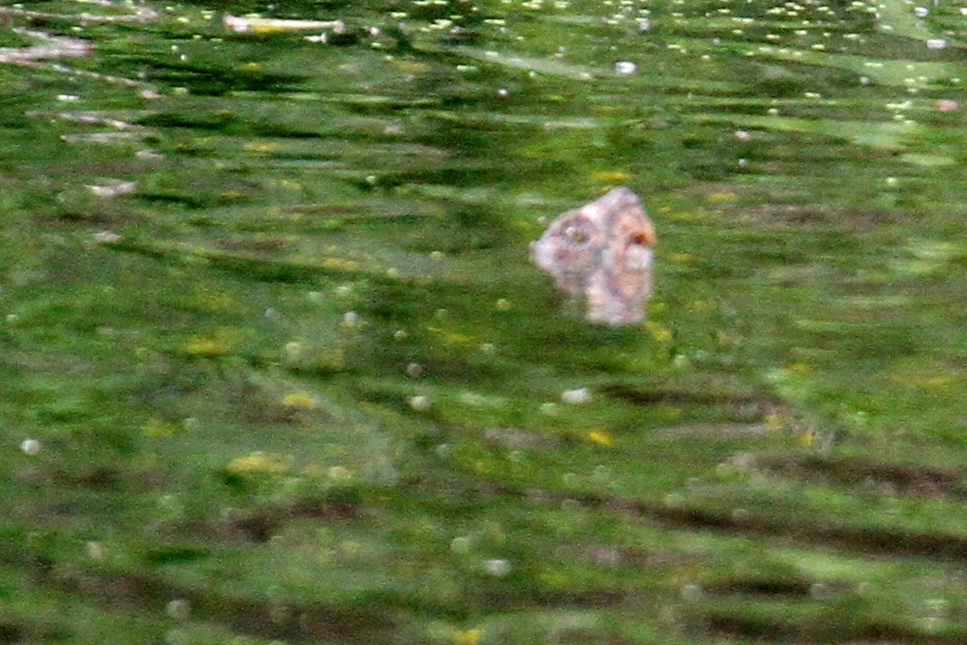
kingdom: Animalia
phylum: Chordata
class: Testudines
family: Chelydridae
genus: Chelydra
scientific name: Chelydra serpentina
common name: Common snapping turtle
